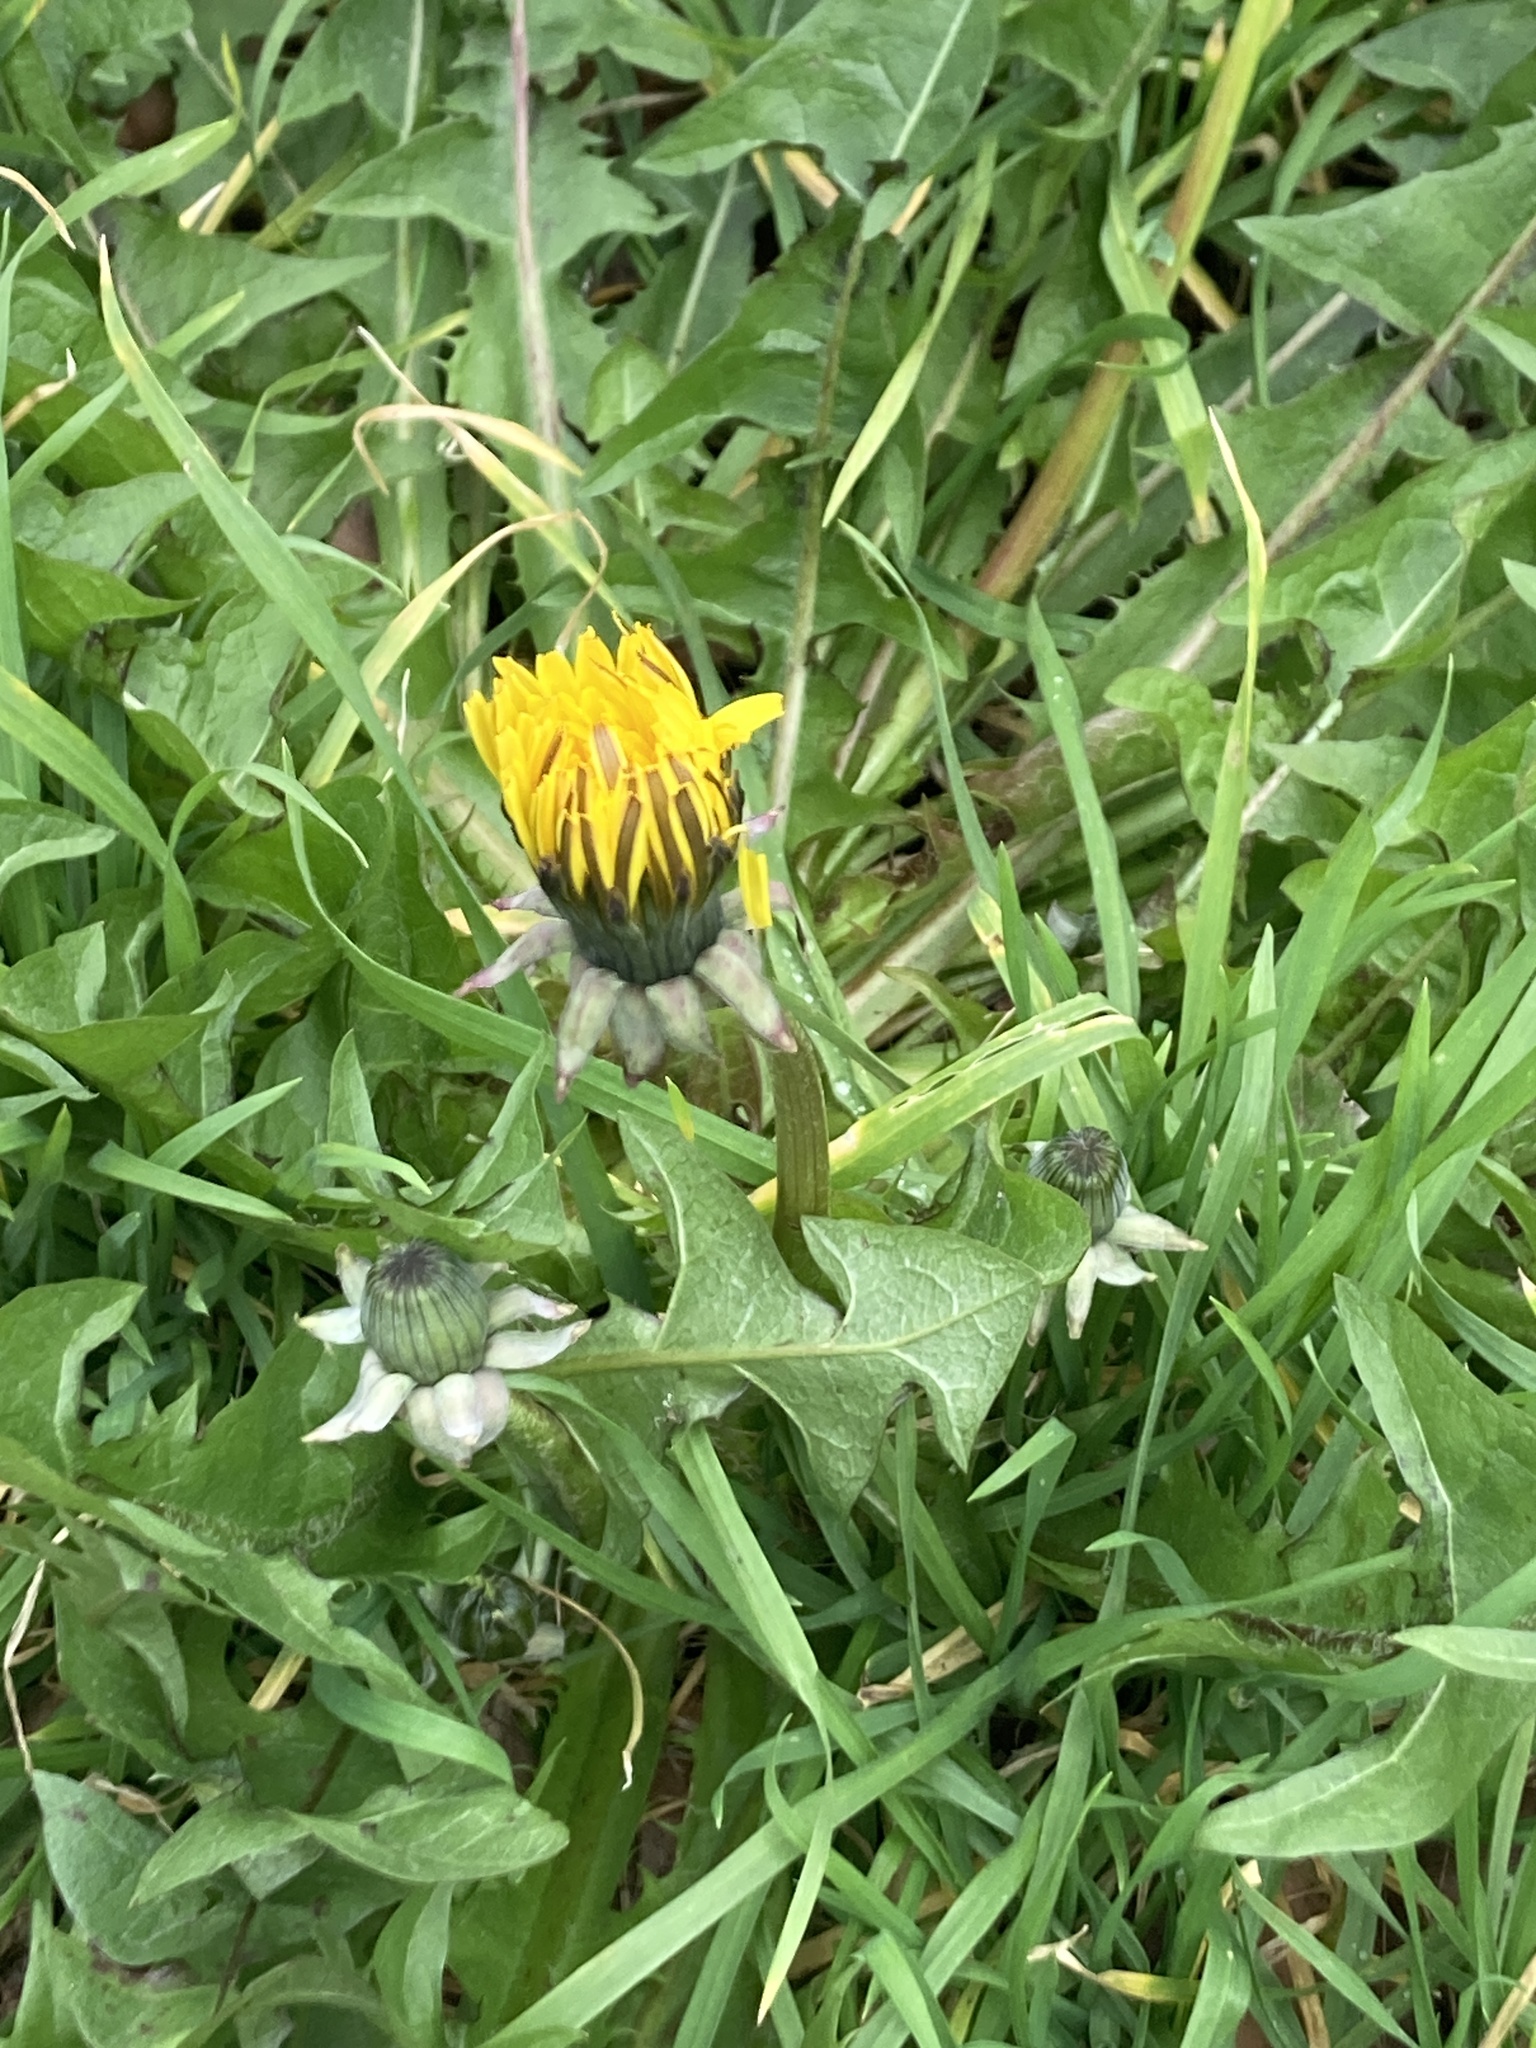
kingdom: Plantae
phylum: Tracheophyta
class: Magnoliopsida
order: Asterales
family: Asteraceae
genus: Taraxacum
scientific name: Taraxacum officinale
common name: Common dandelion
